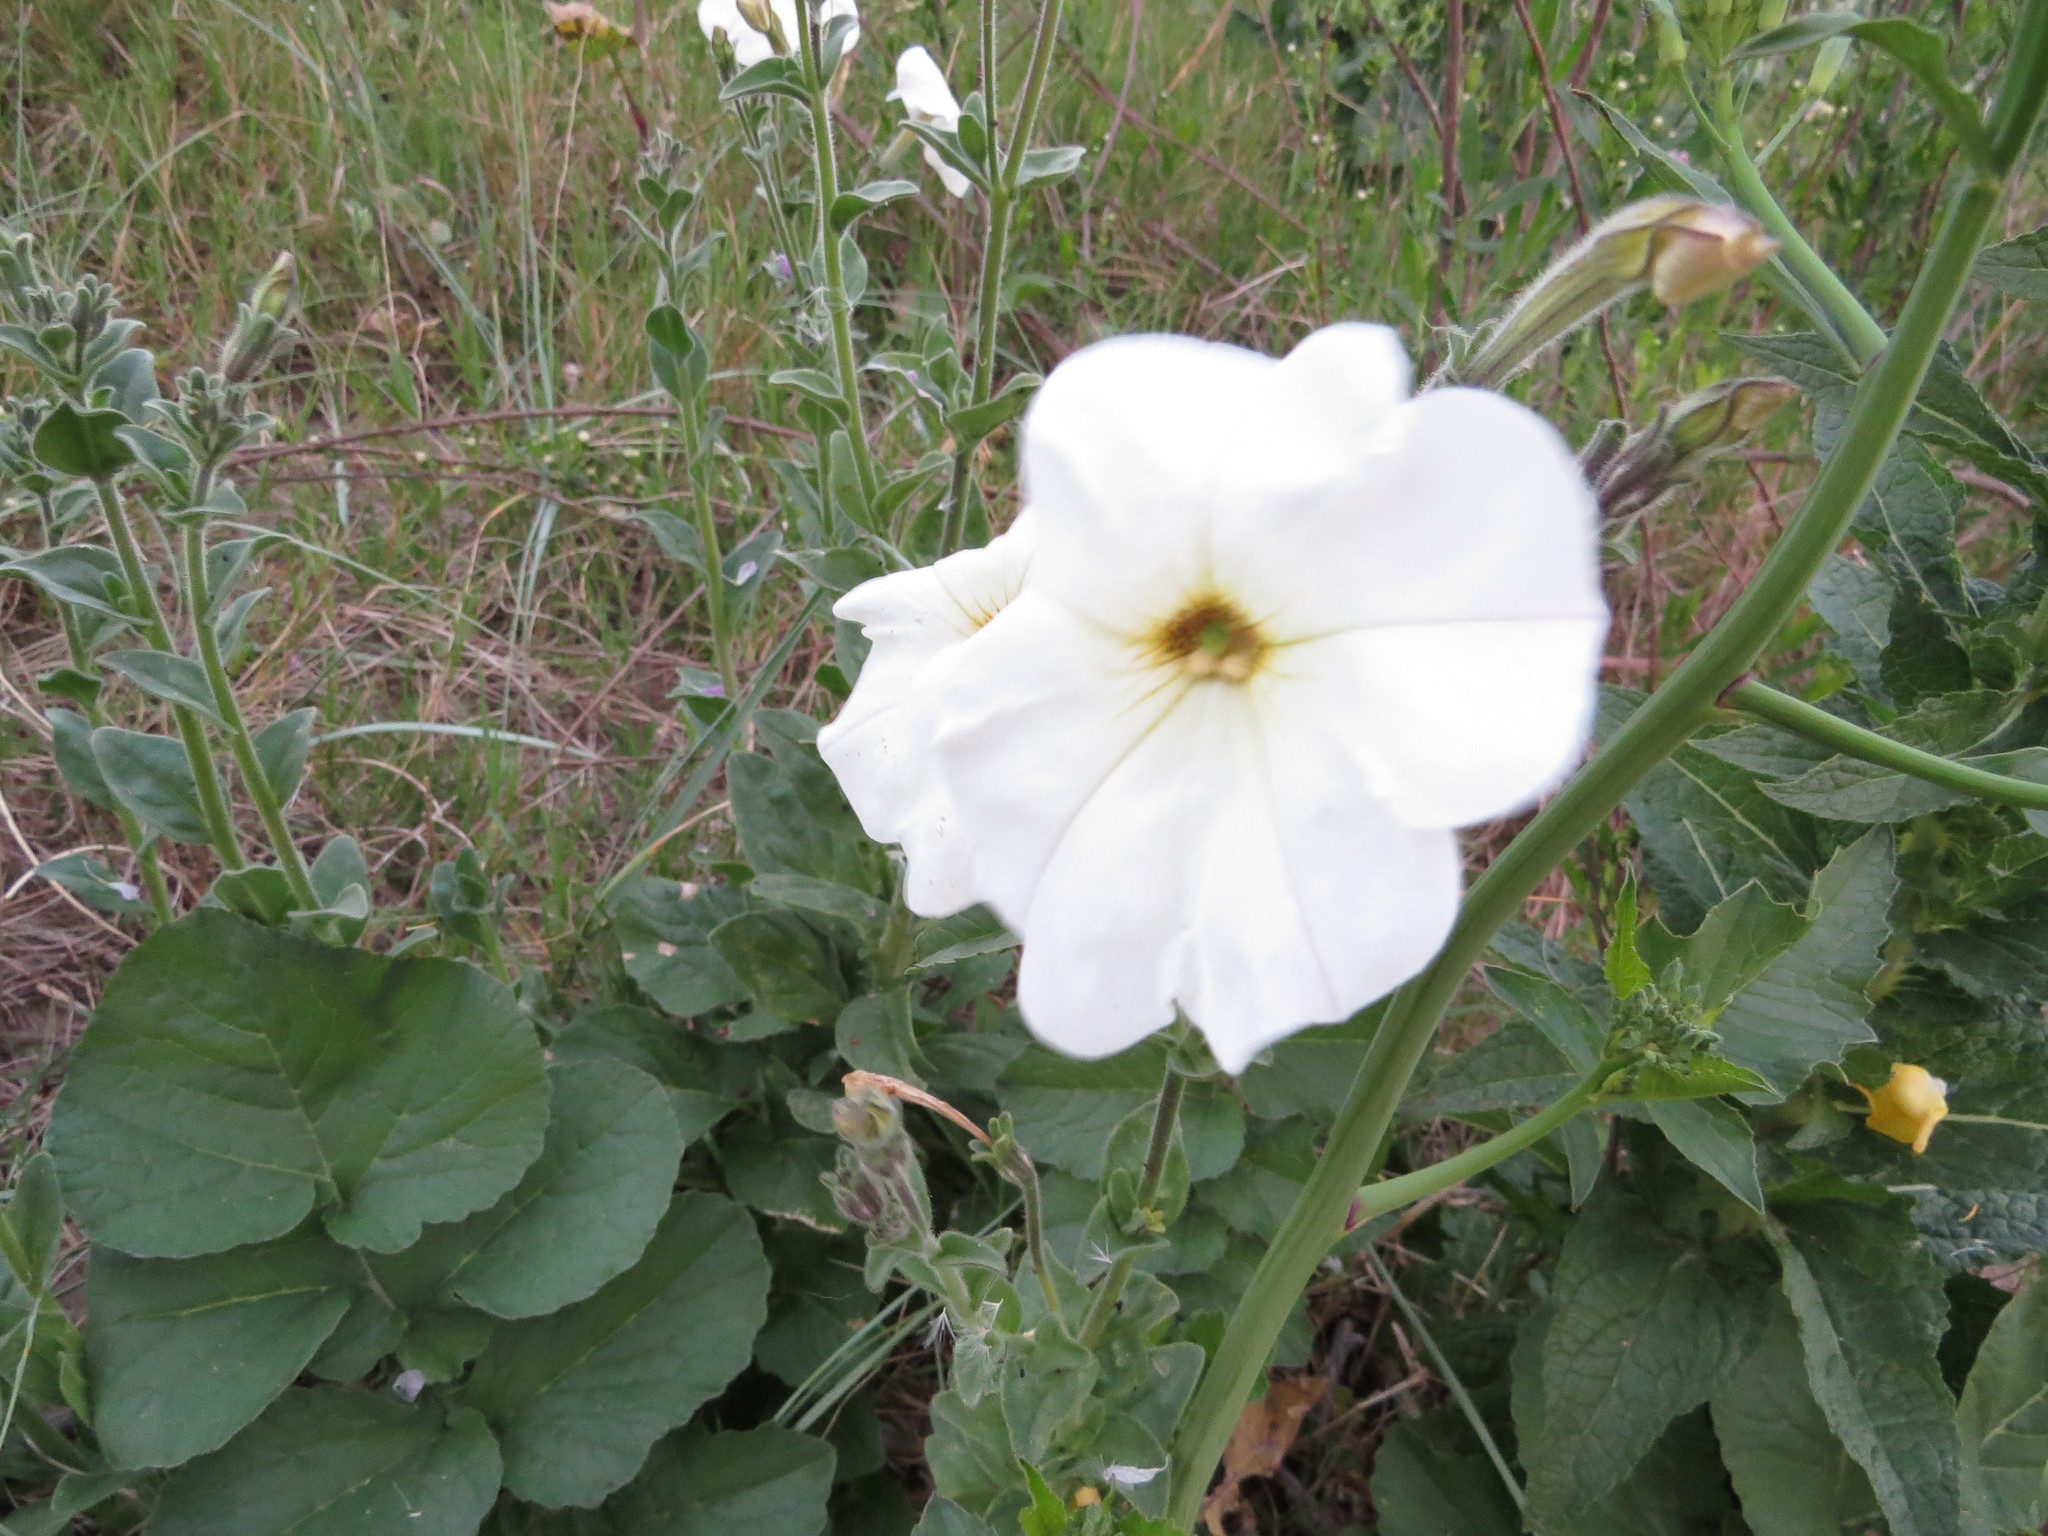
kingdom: Plantae
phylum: Tracheophyta
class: Magnoliopsida
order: Solanales
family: Solanaceae
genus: Petunia
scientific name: Petunia axillaris
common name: Large white petunia
